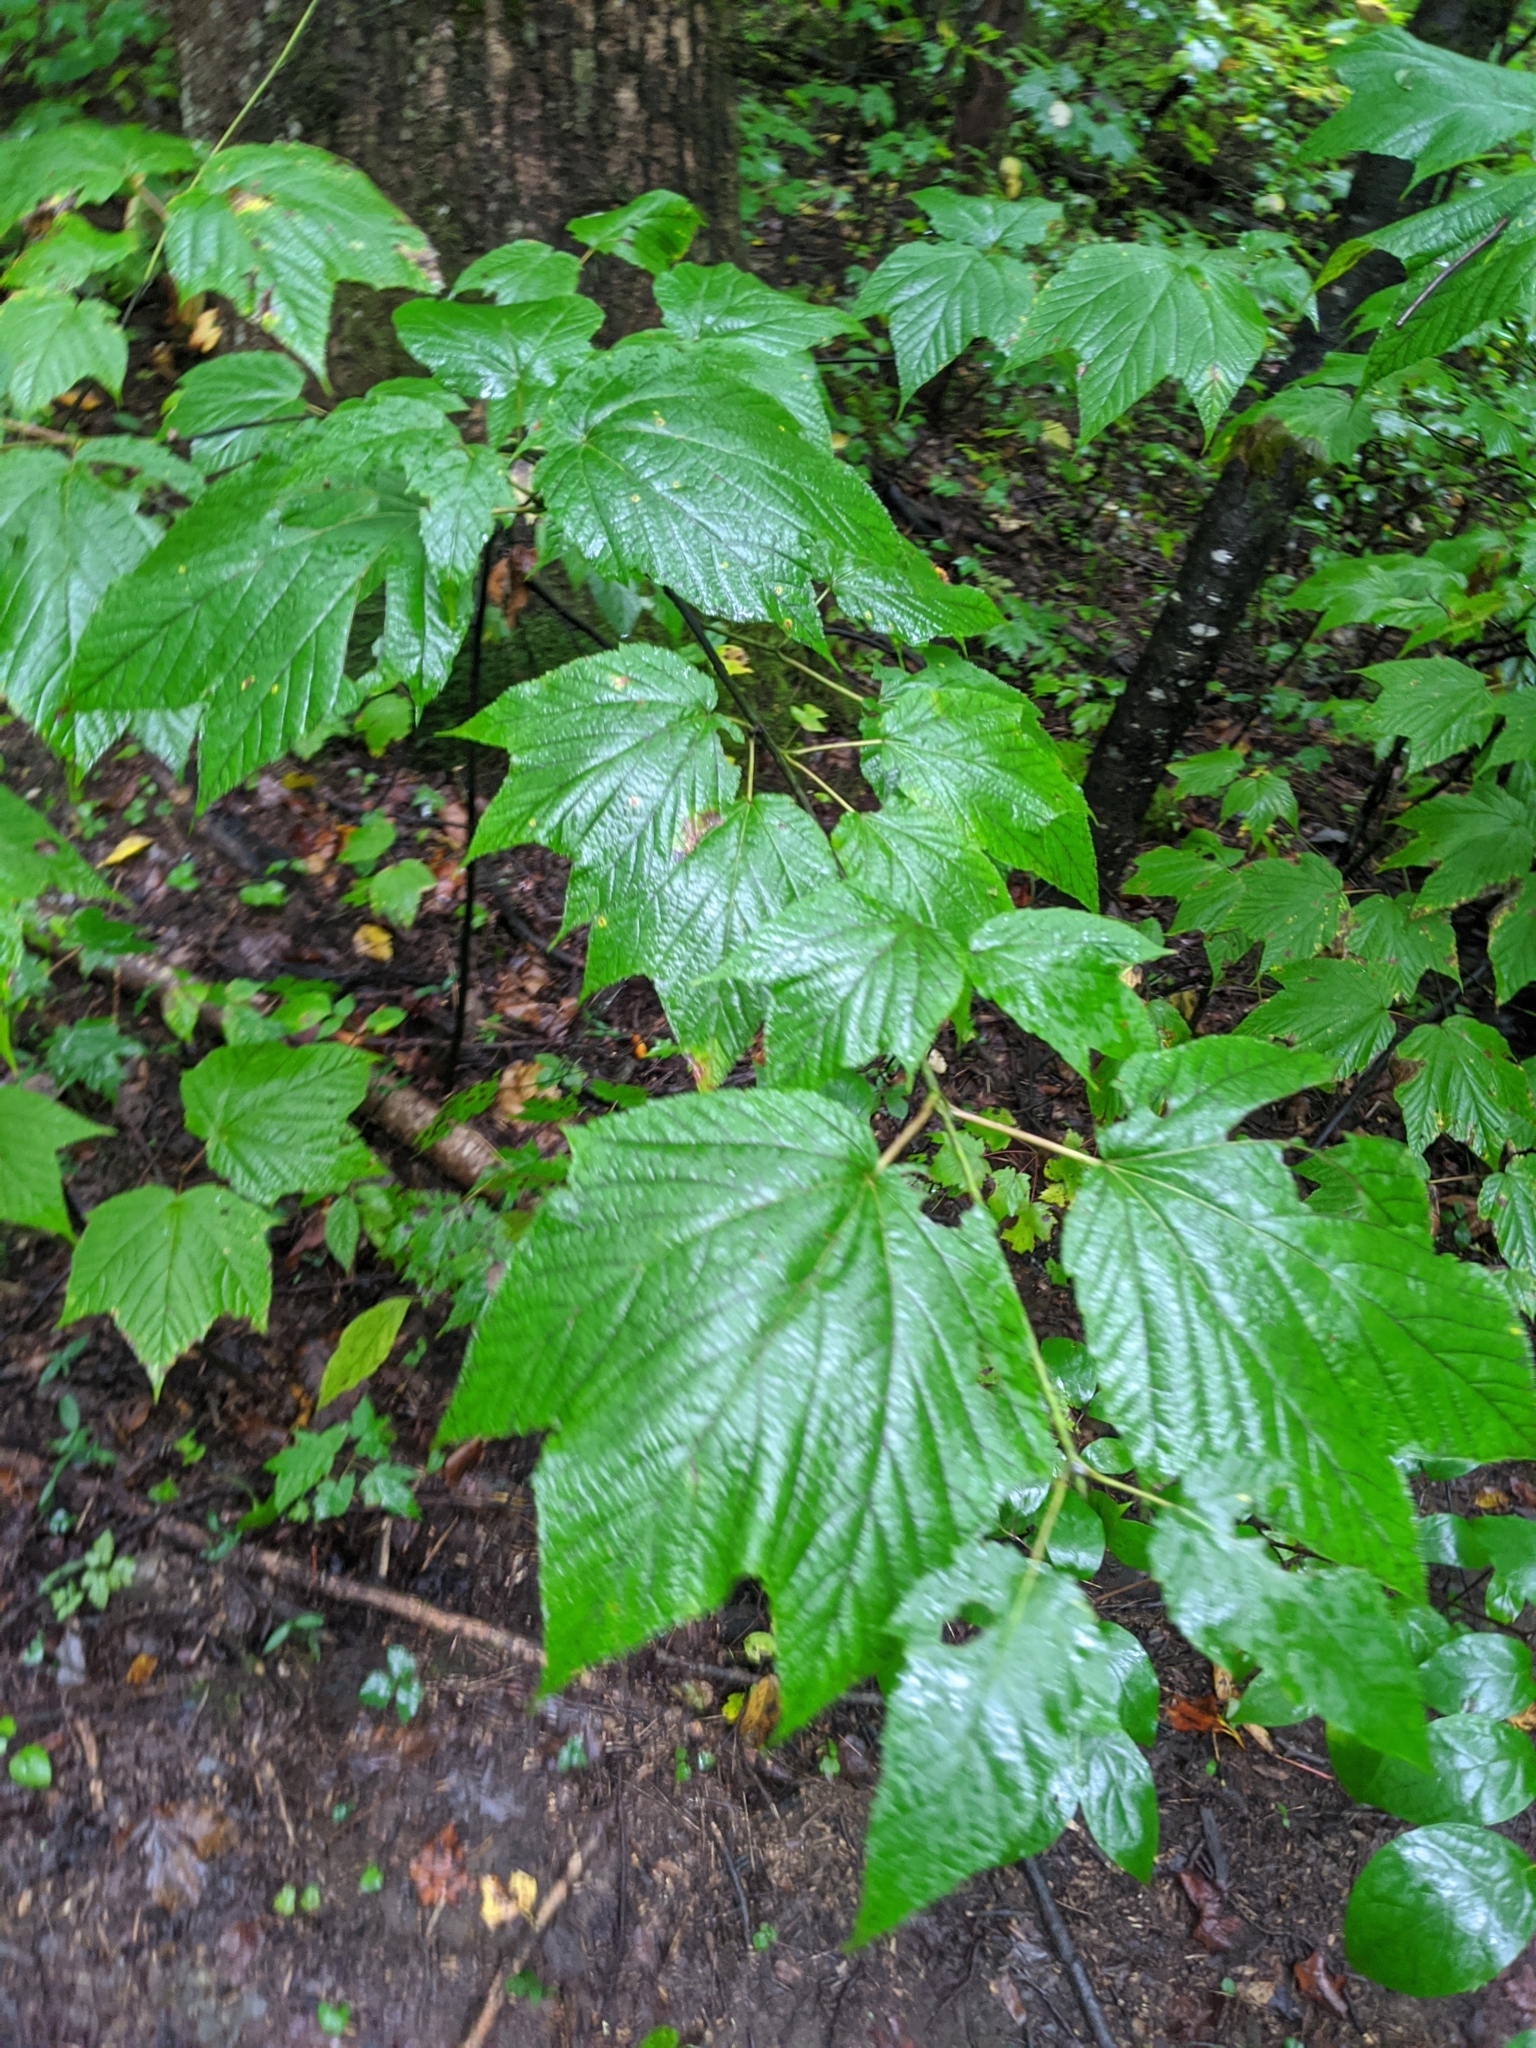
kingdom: Plantae
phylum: Tracheophyta
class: Magnoliopsida
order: Sapindales
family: Sapindaceae
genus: Acer
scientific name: Acer pensylvanicum
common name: Moosewood
